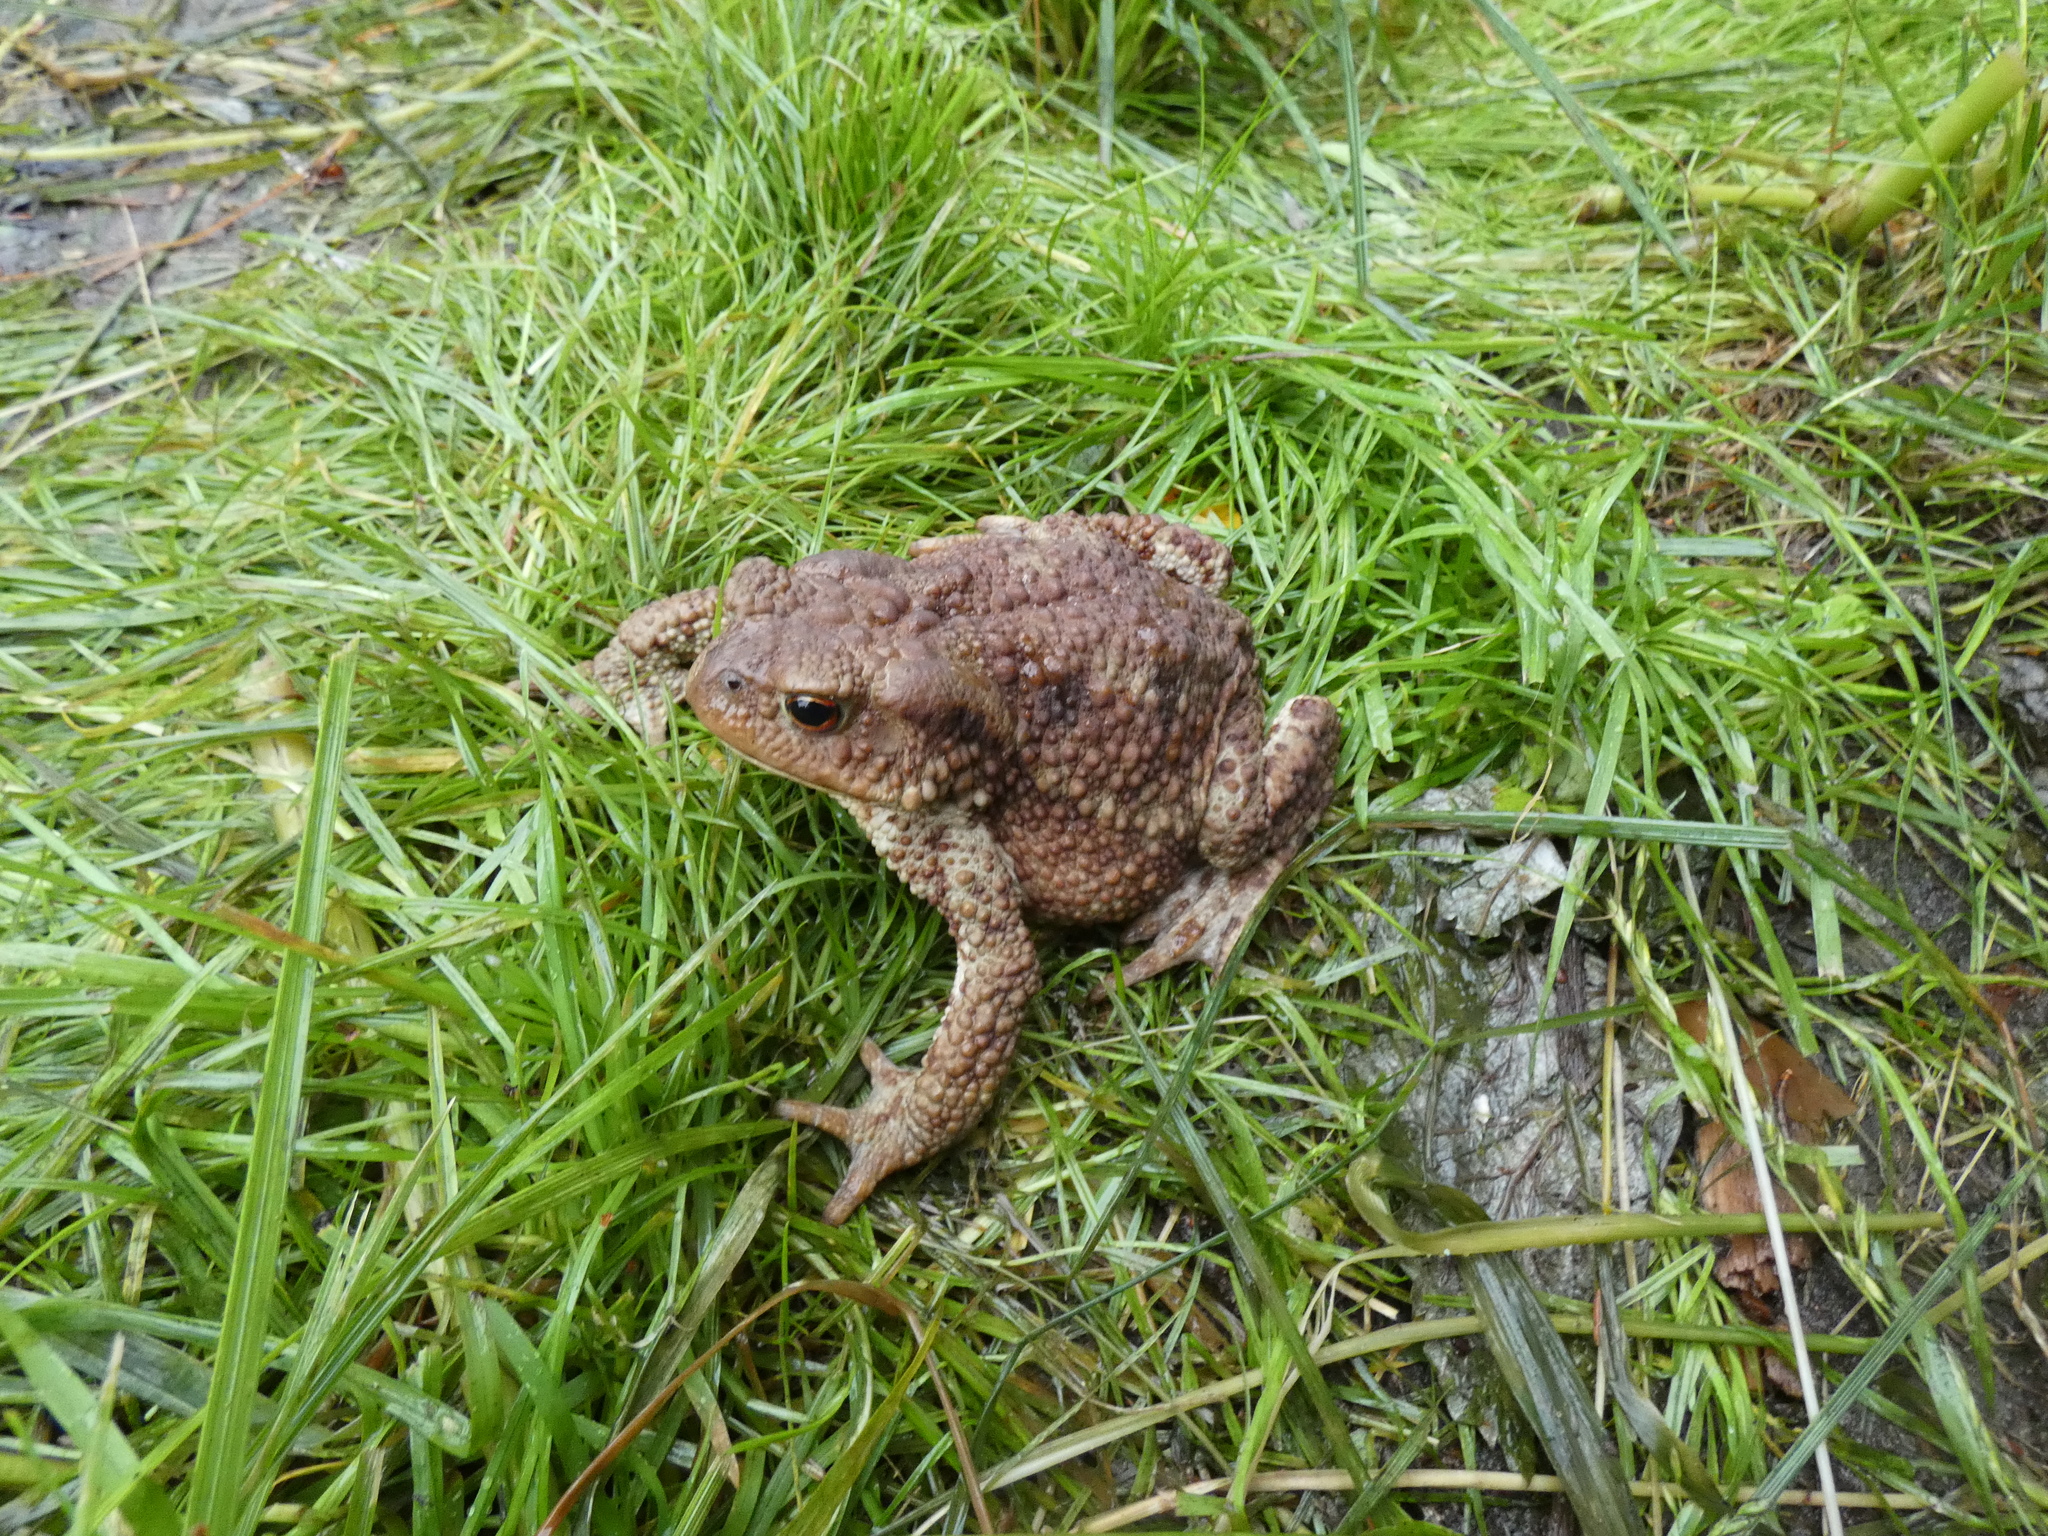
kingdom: Animalia
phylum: Chordata
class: Amphibia
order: Anura
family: Bufonidae
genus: Bufo
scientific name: Bufo bufo
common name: Common toad
